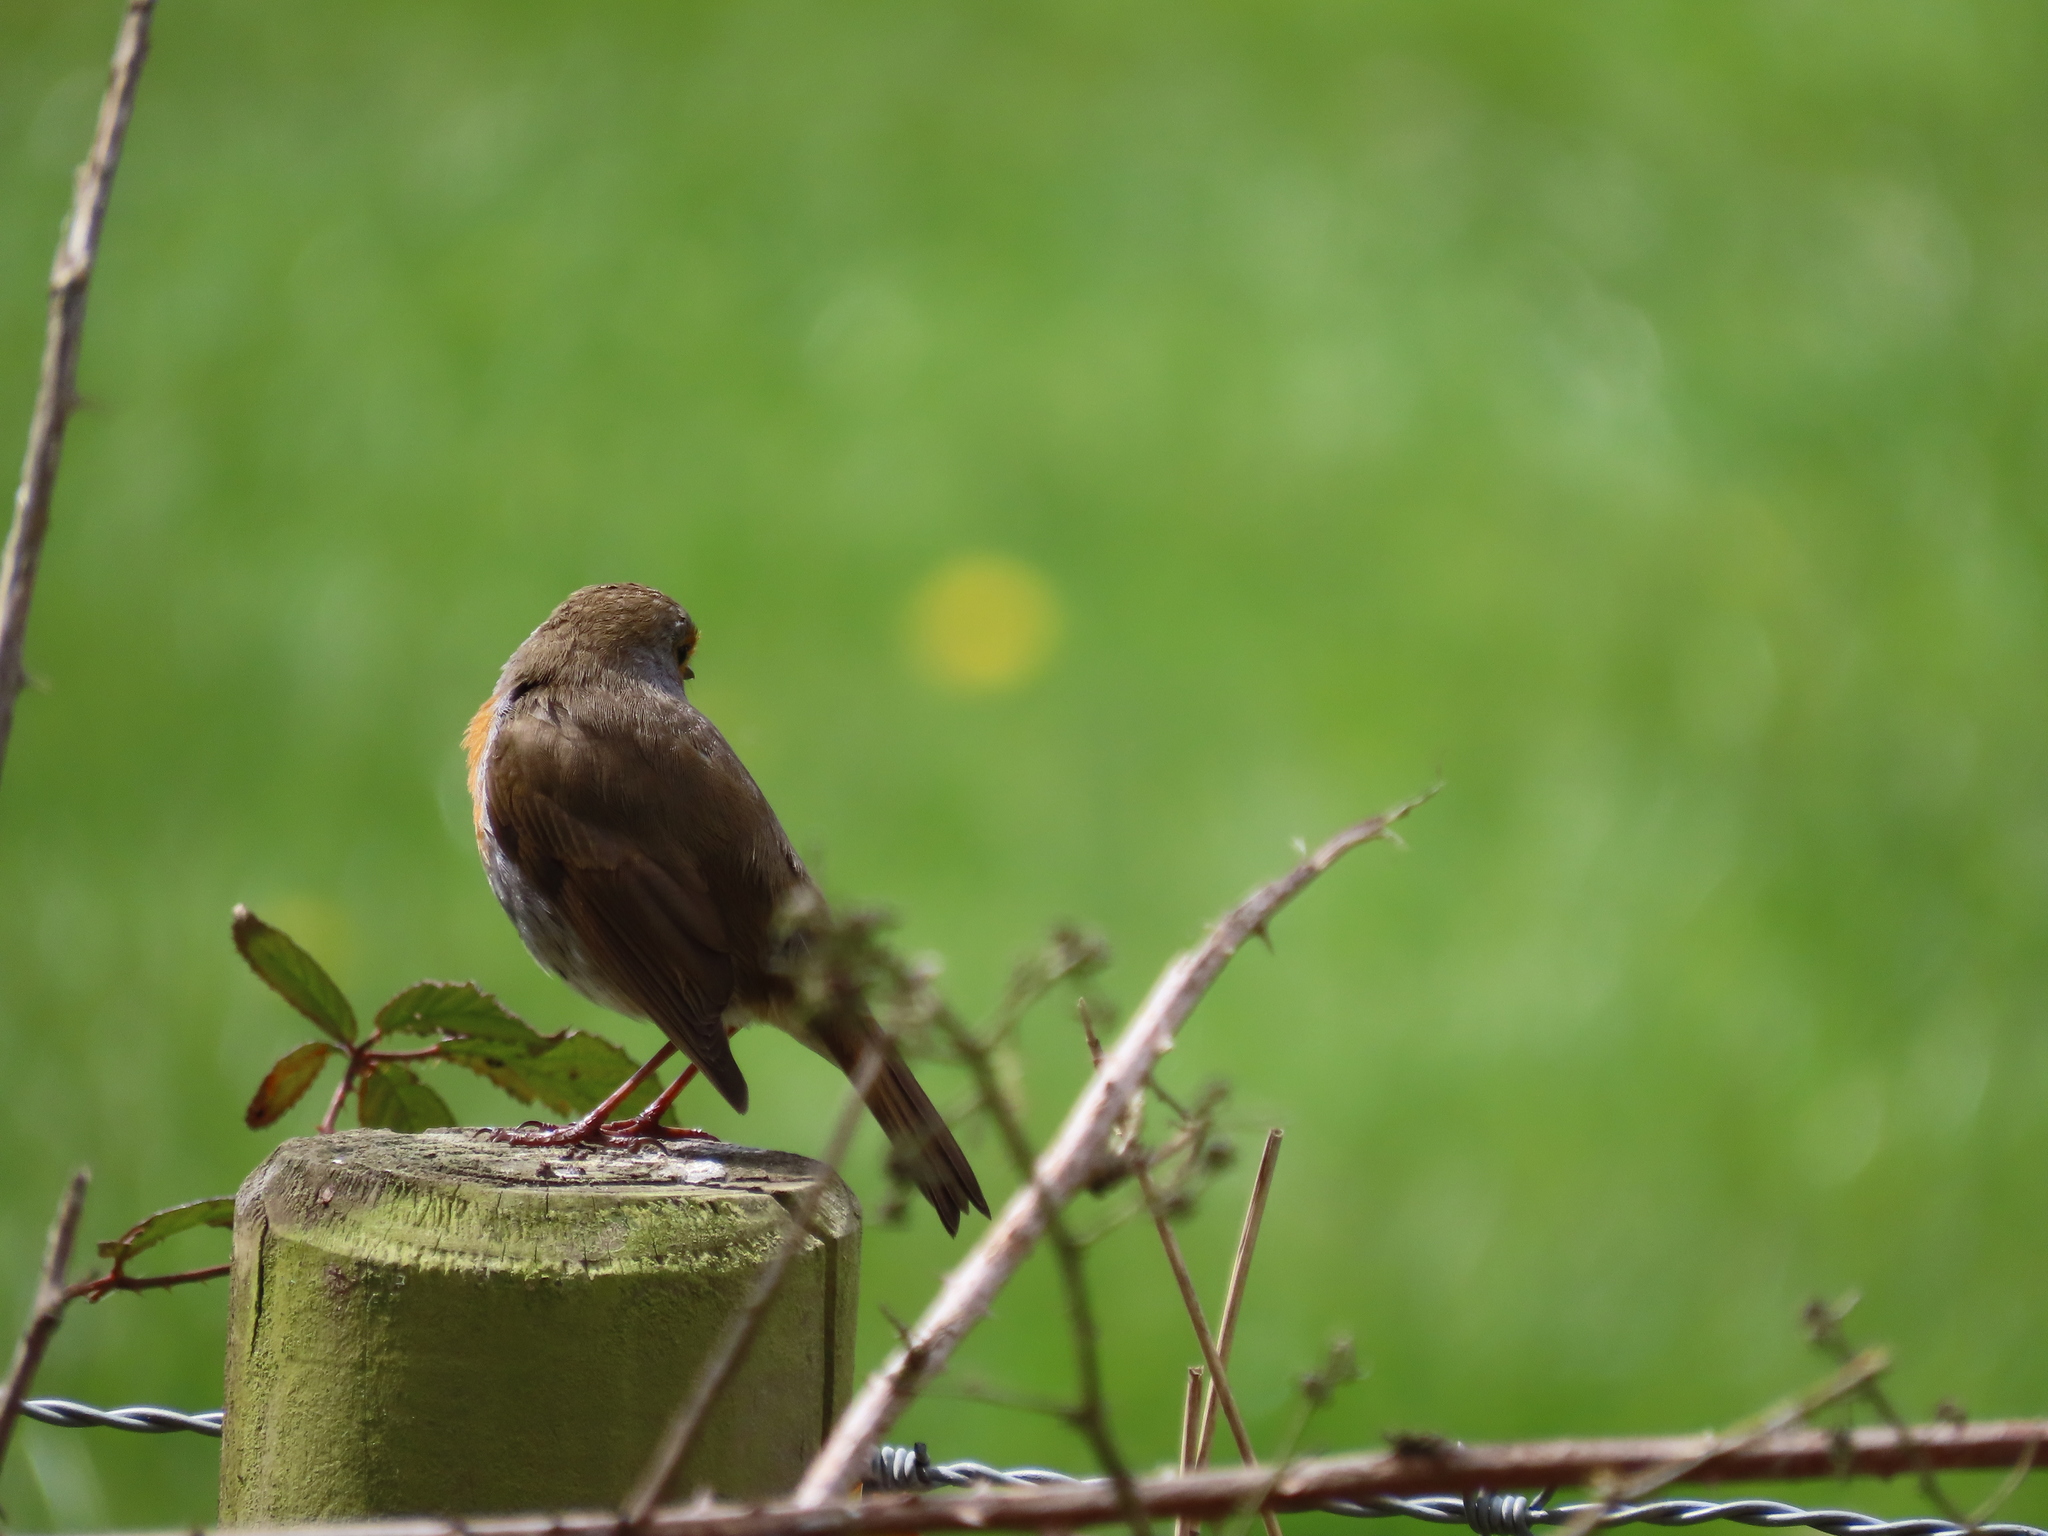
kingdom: Animalia
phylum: Chordata
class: Aves
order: Passeriformes
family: Muscicapidae
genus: Erithacus
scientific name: Erithacus rubecula
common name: European robin
